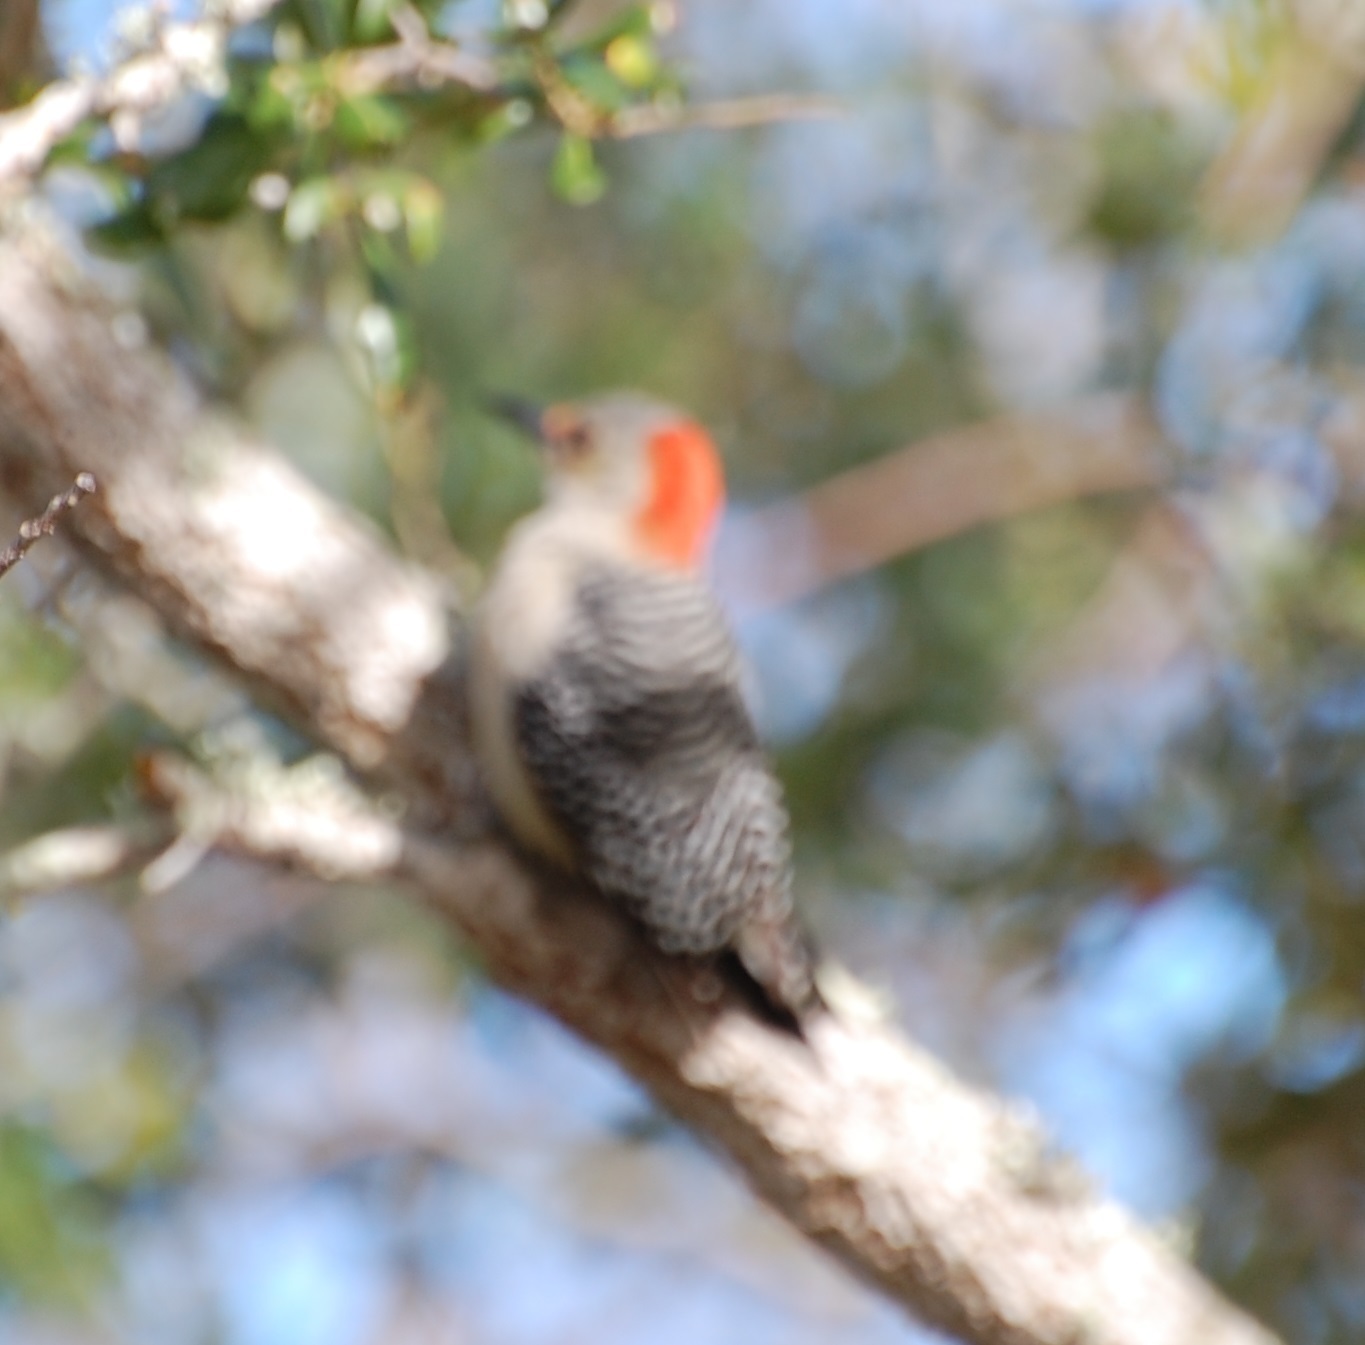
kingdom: Animalia
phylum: Chordata
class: Aves
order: Piciformes
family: Picidae
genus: Melanerpes
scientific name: Melanerpes carolinus
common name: Red-bellied woodpecker
